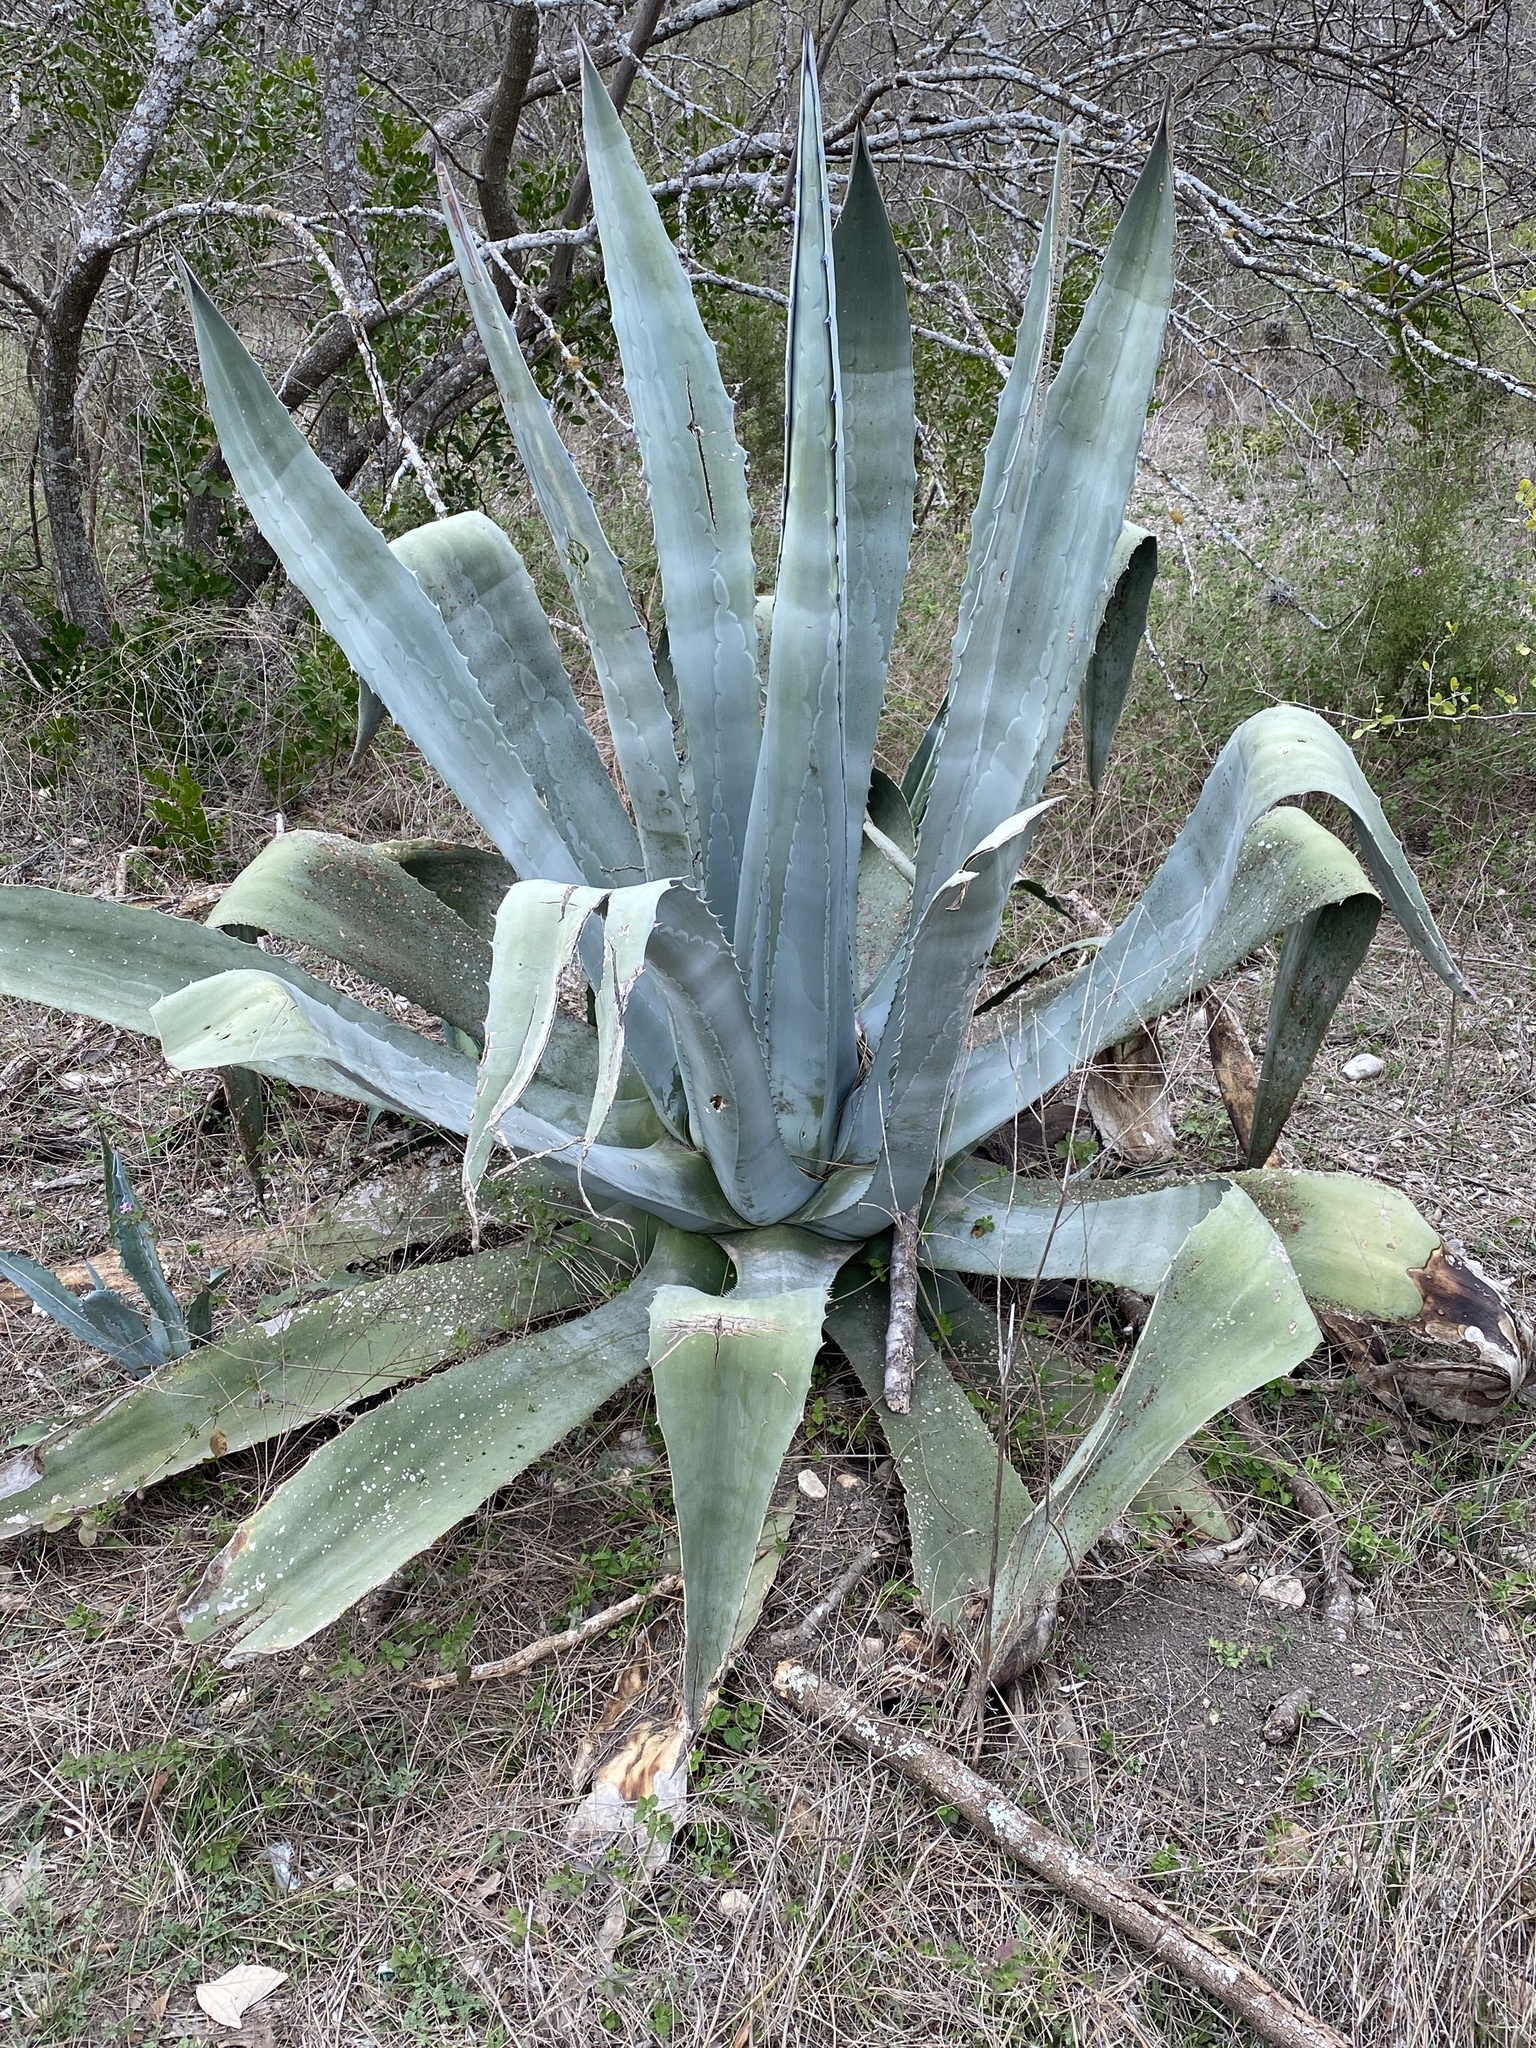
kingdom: Plantae
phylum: Tracheophyta
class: Liliopsida
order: Asparagales
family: Asparagaceae
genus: Agave
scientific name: Agave americana
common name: Centuryplant
